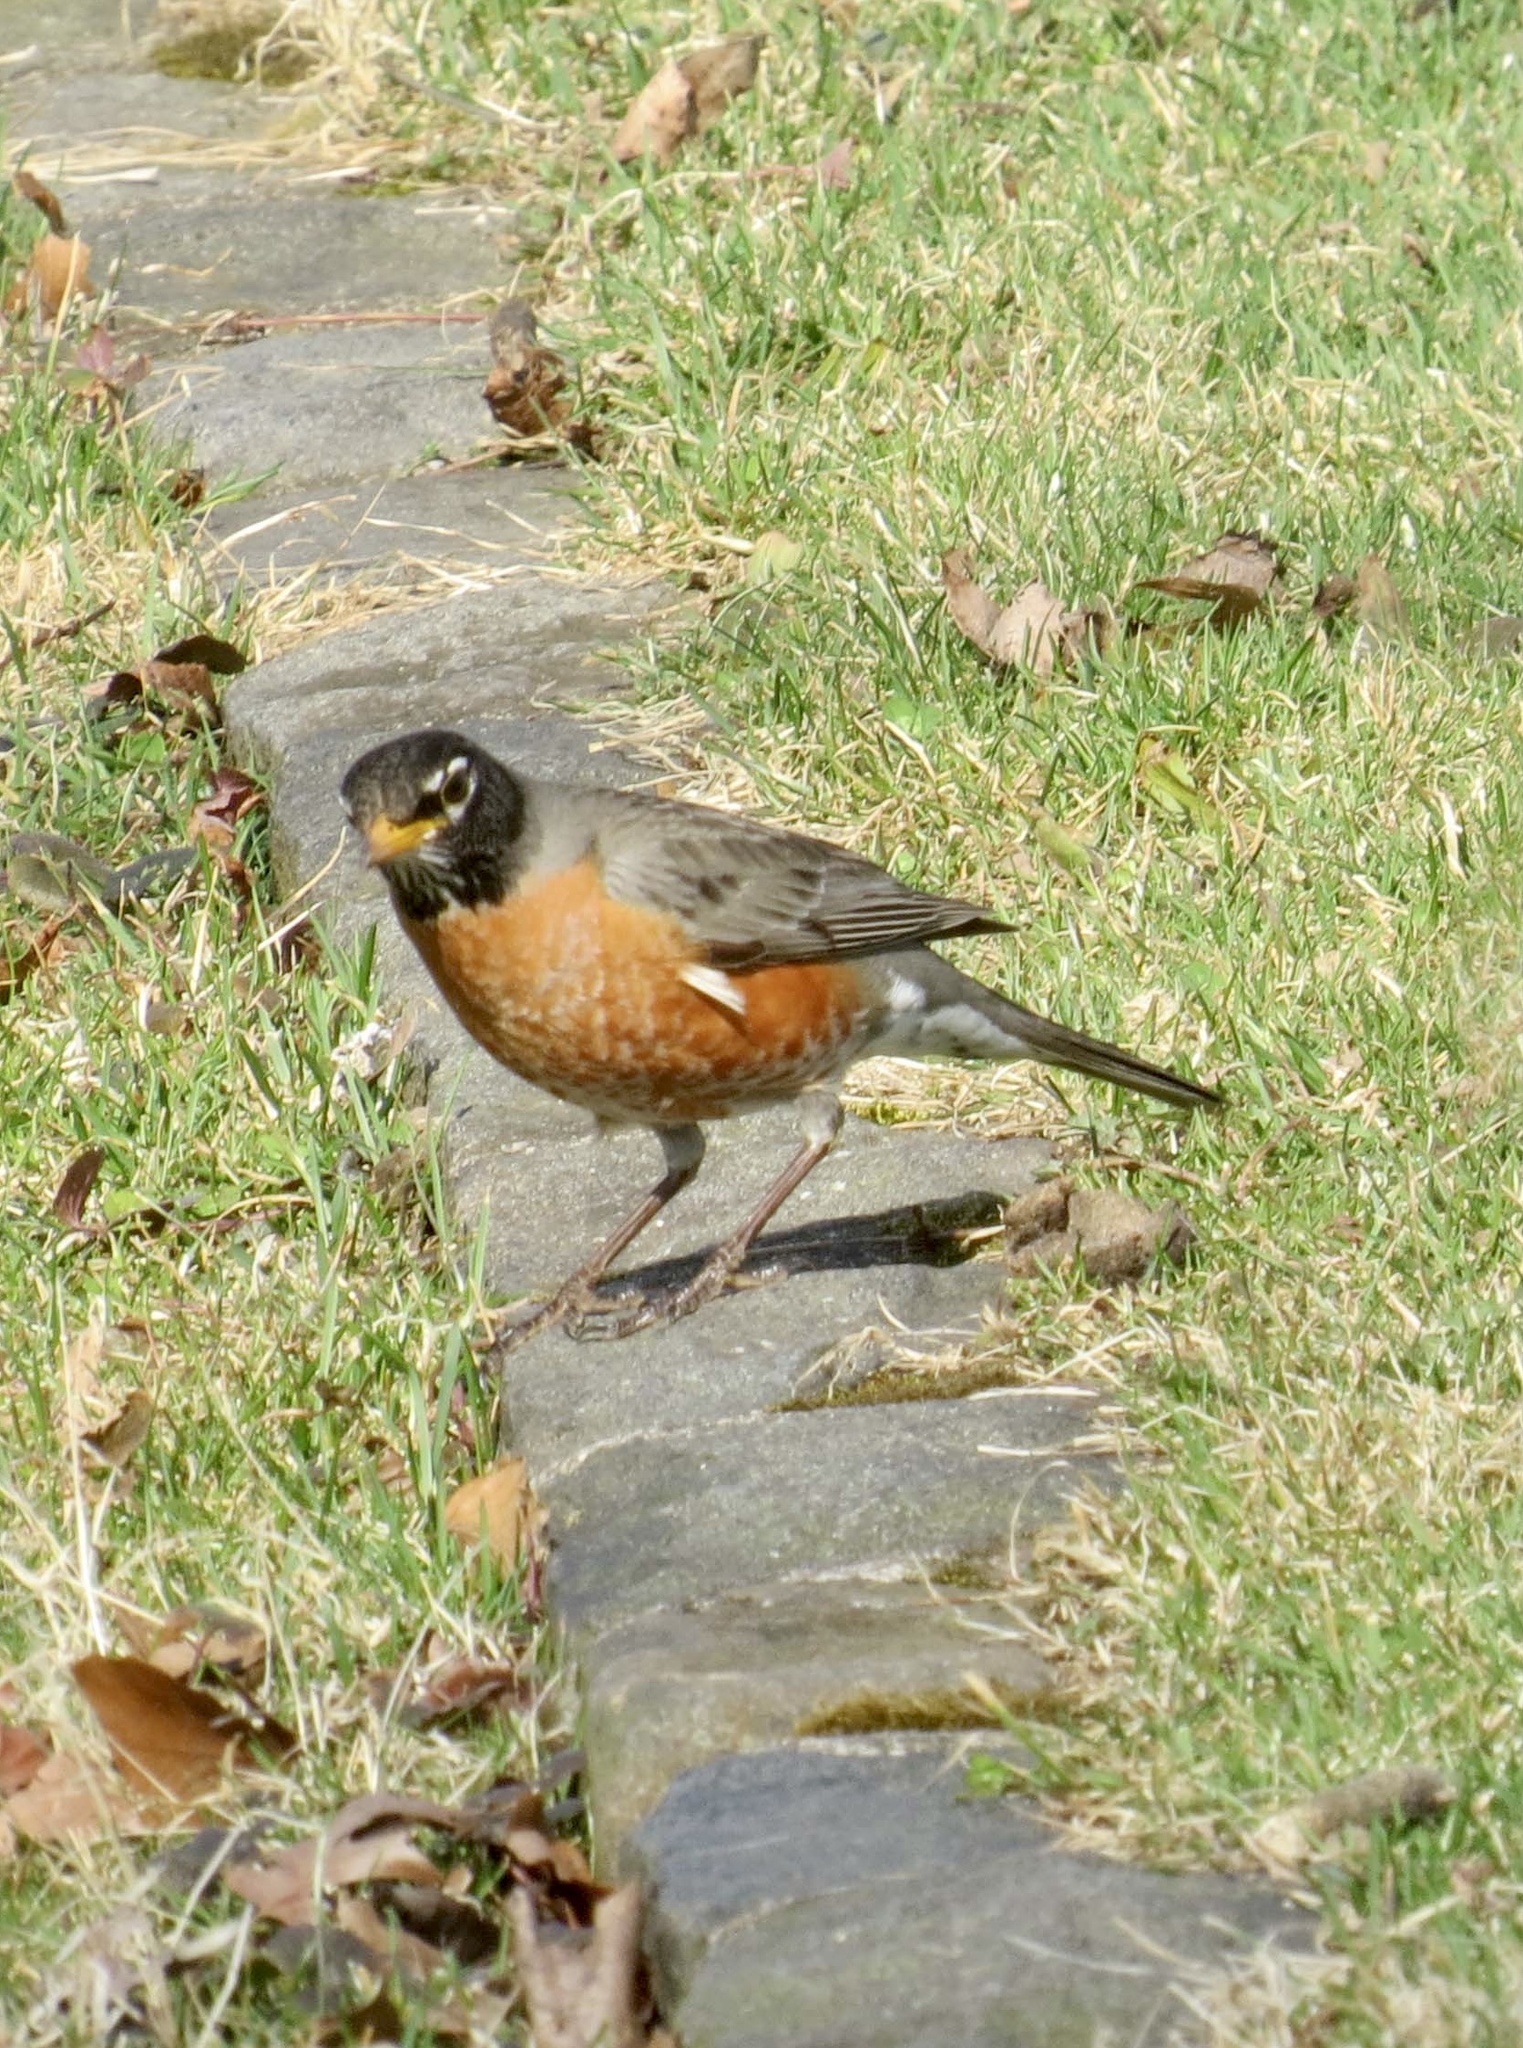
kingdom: Animalia
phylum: Chordata
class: Aves
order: Passeriformes
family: Turdidae
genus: Turdus
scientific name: Turdus migratorius
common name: American robin
